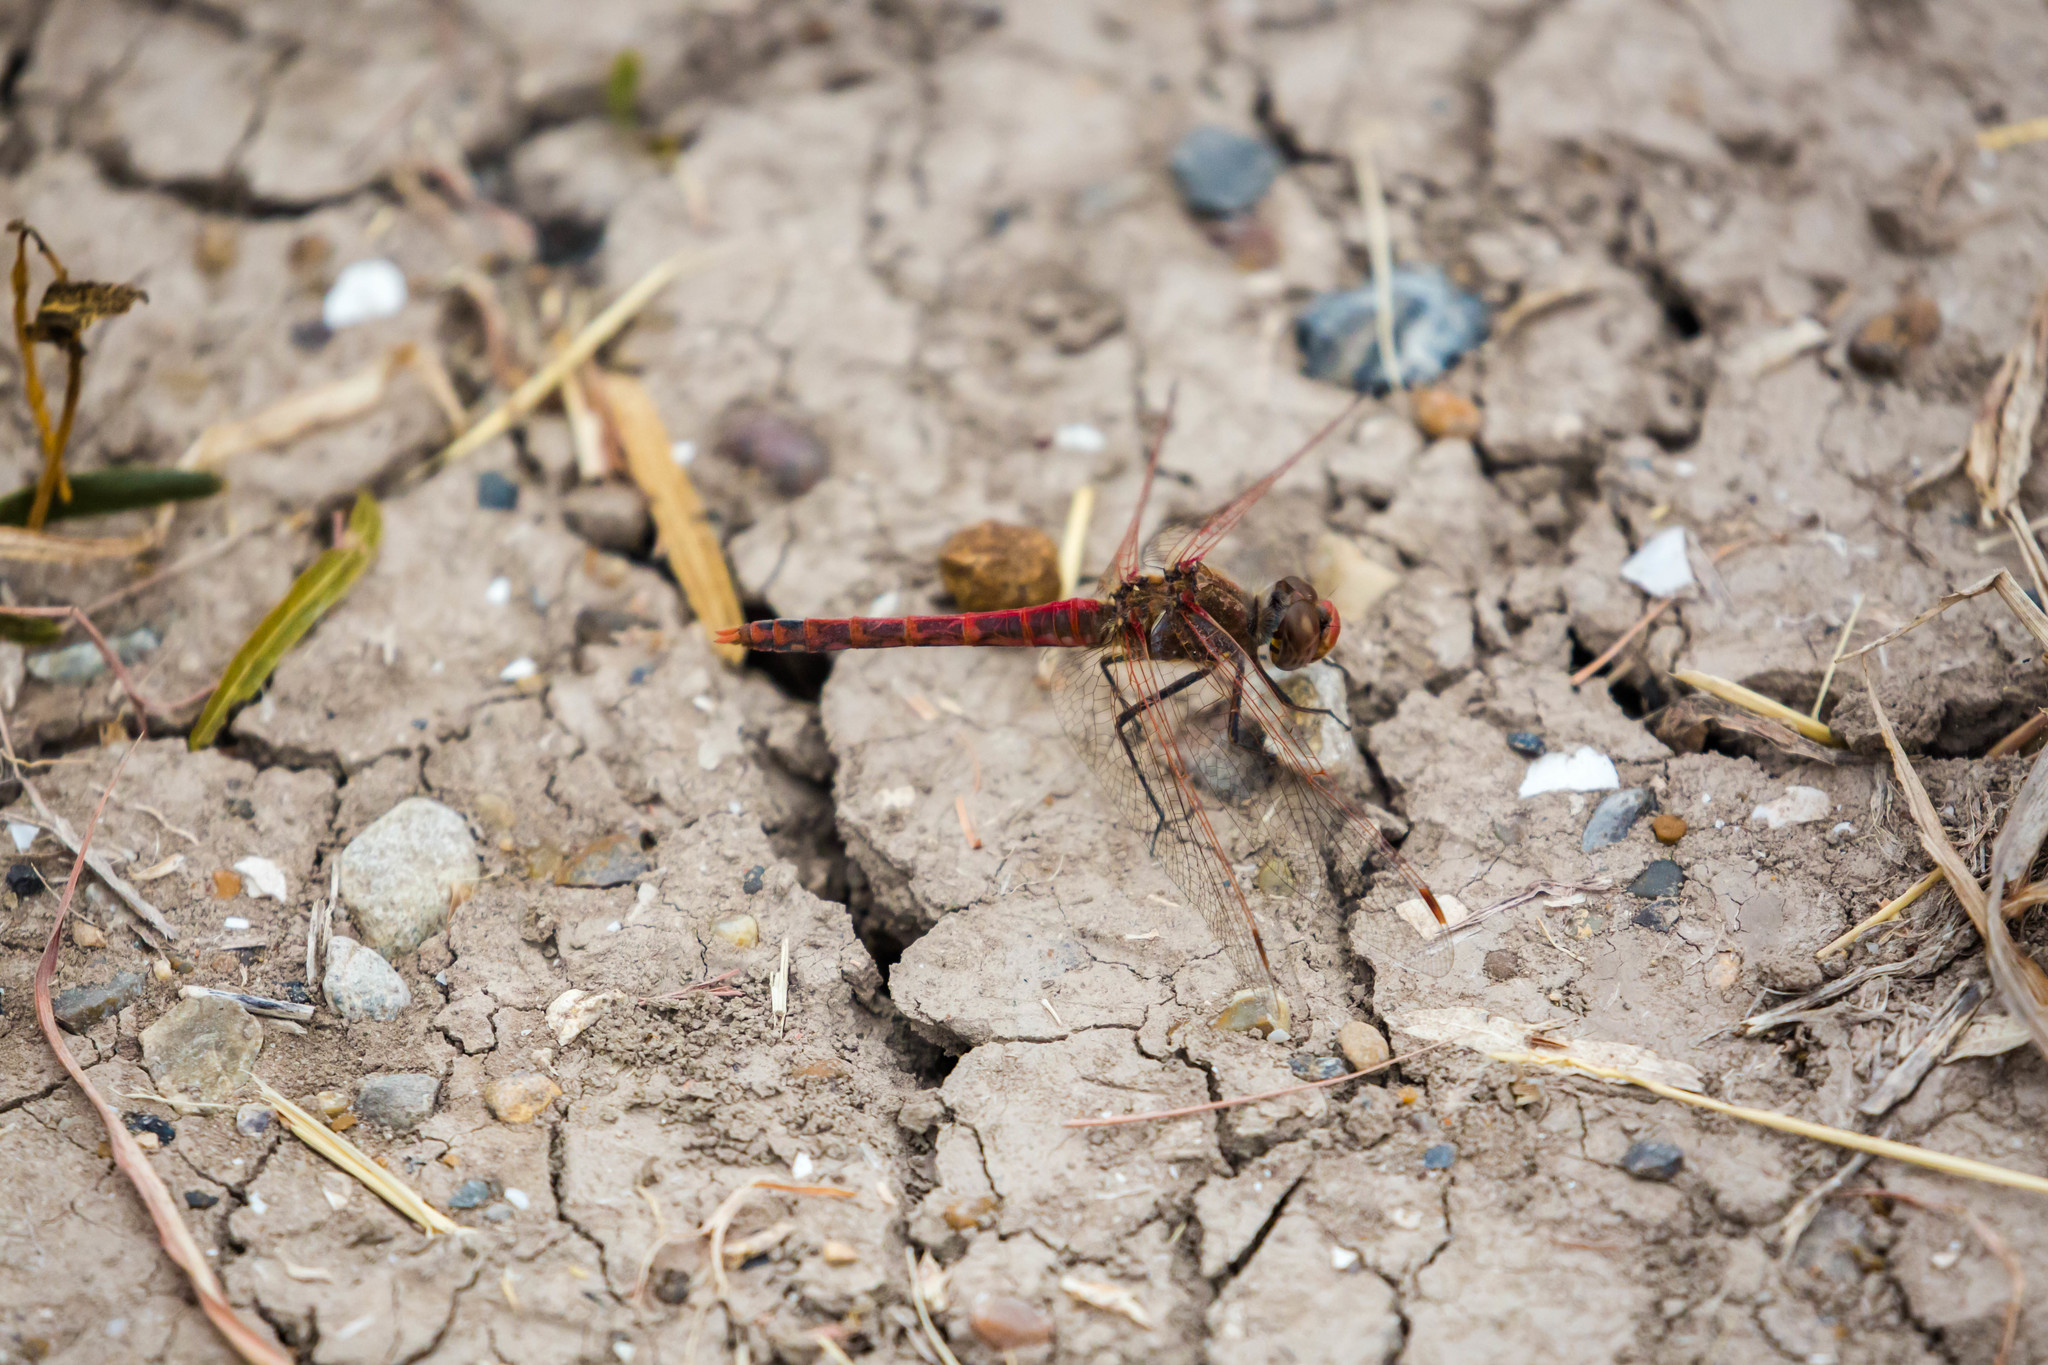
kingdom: Animalia
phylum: Arthropoda
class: Insecta
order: Odonata
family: Libellulidae
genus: Sympetrum
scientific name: Sympetrum corruptum
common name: Variegated meadowhawk
